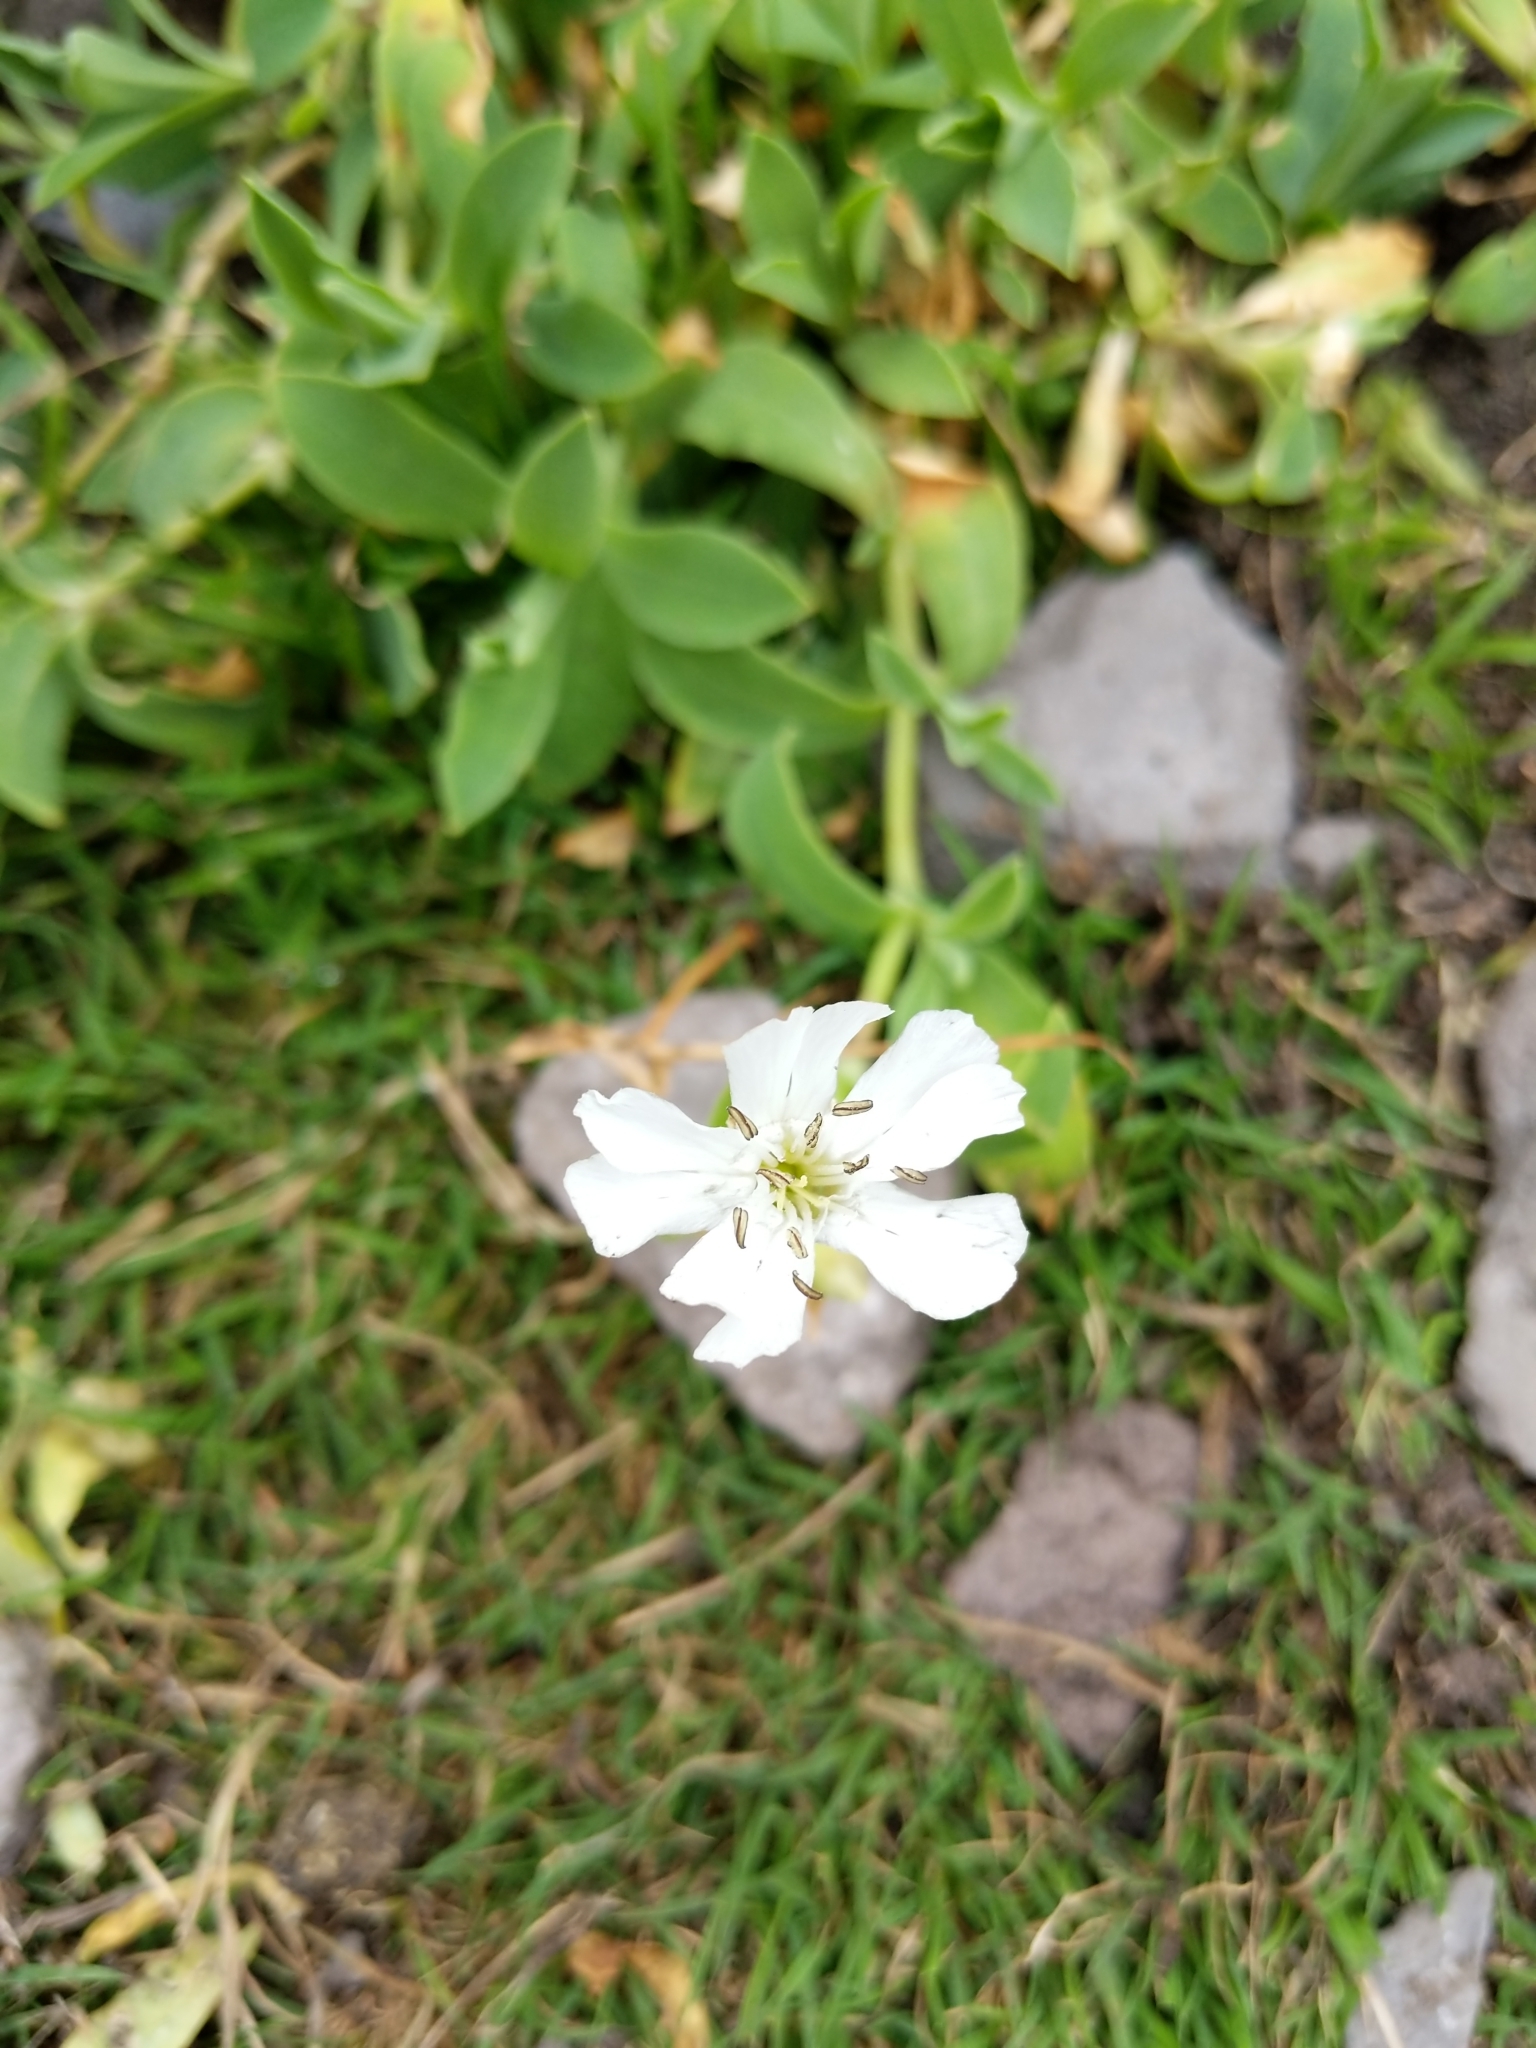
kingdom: Plantae
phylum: Tracheophyta
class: Magnoliopsida
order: Caryophyllales
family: Caryophyllaceae
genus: Silene
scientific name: Silene uniflora
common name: Sea campion
